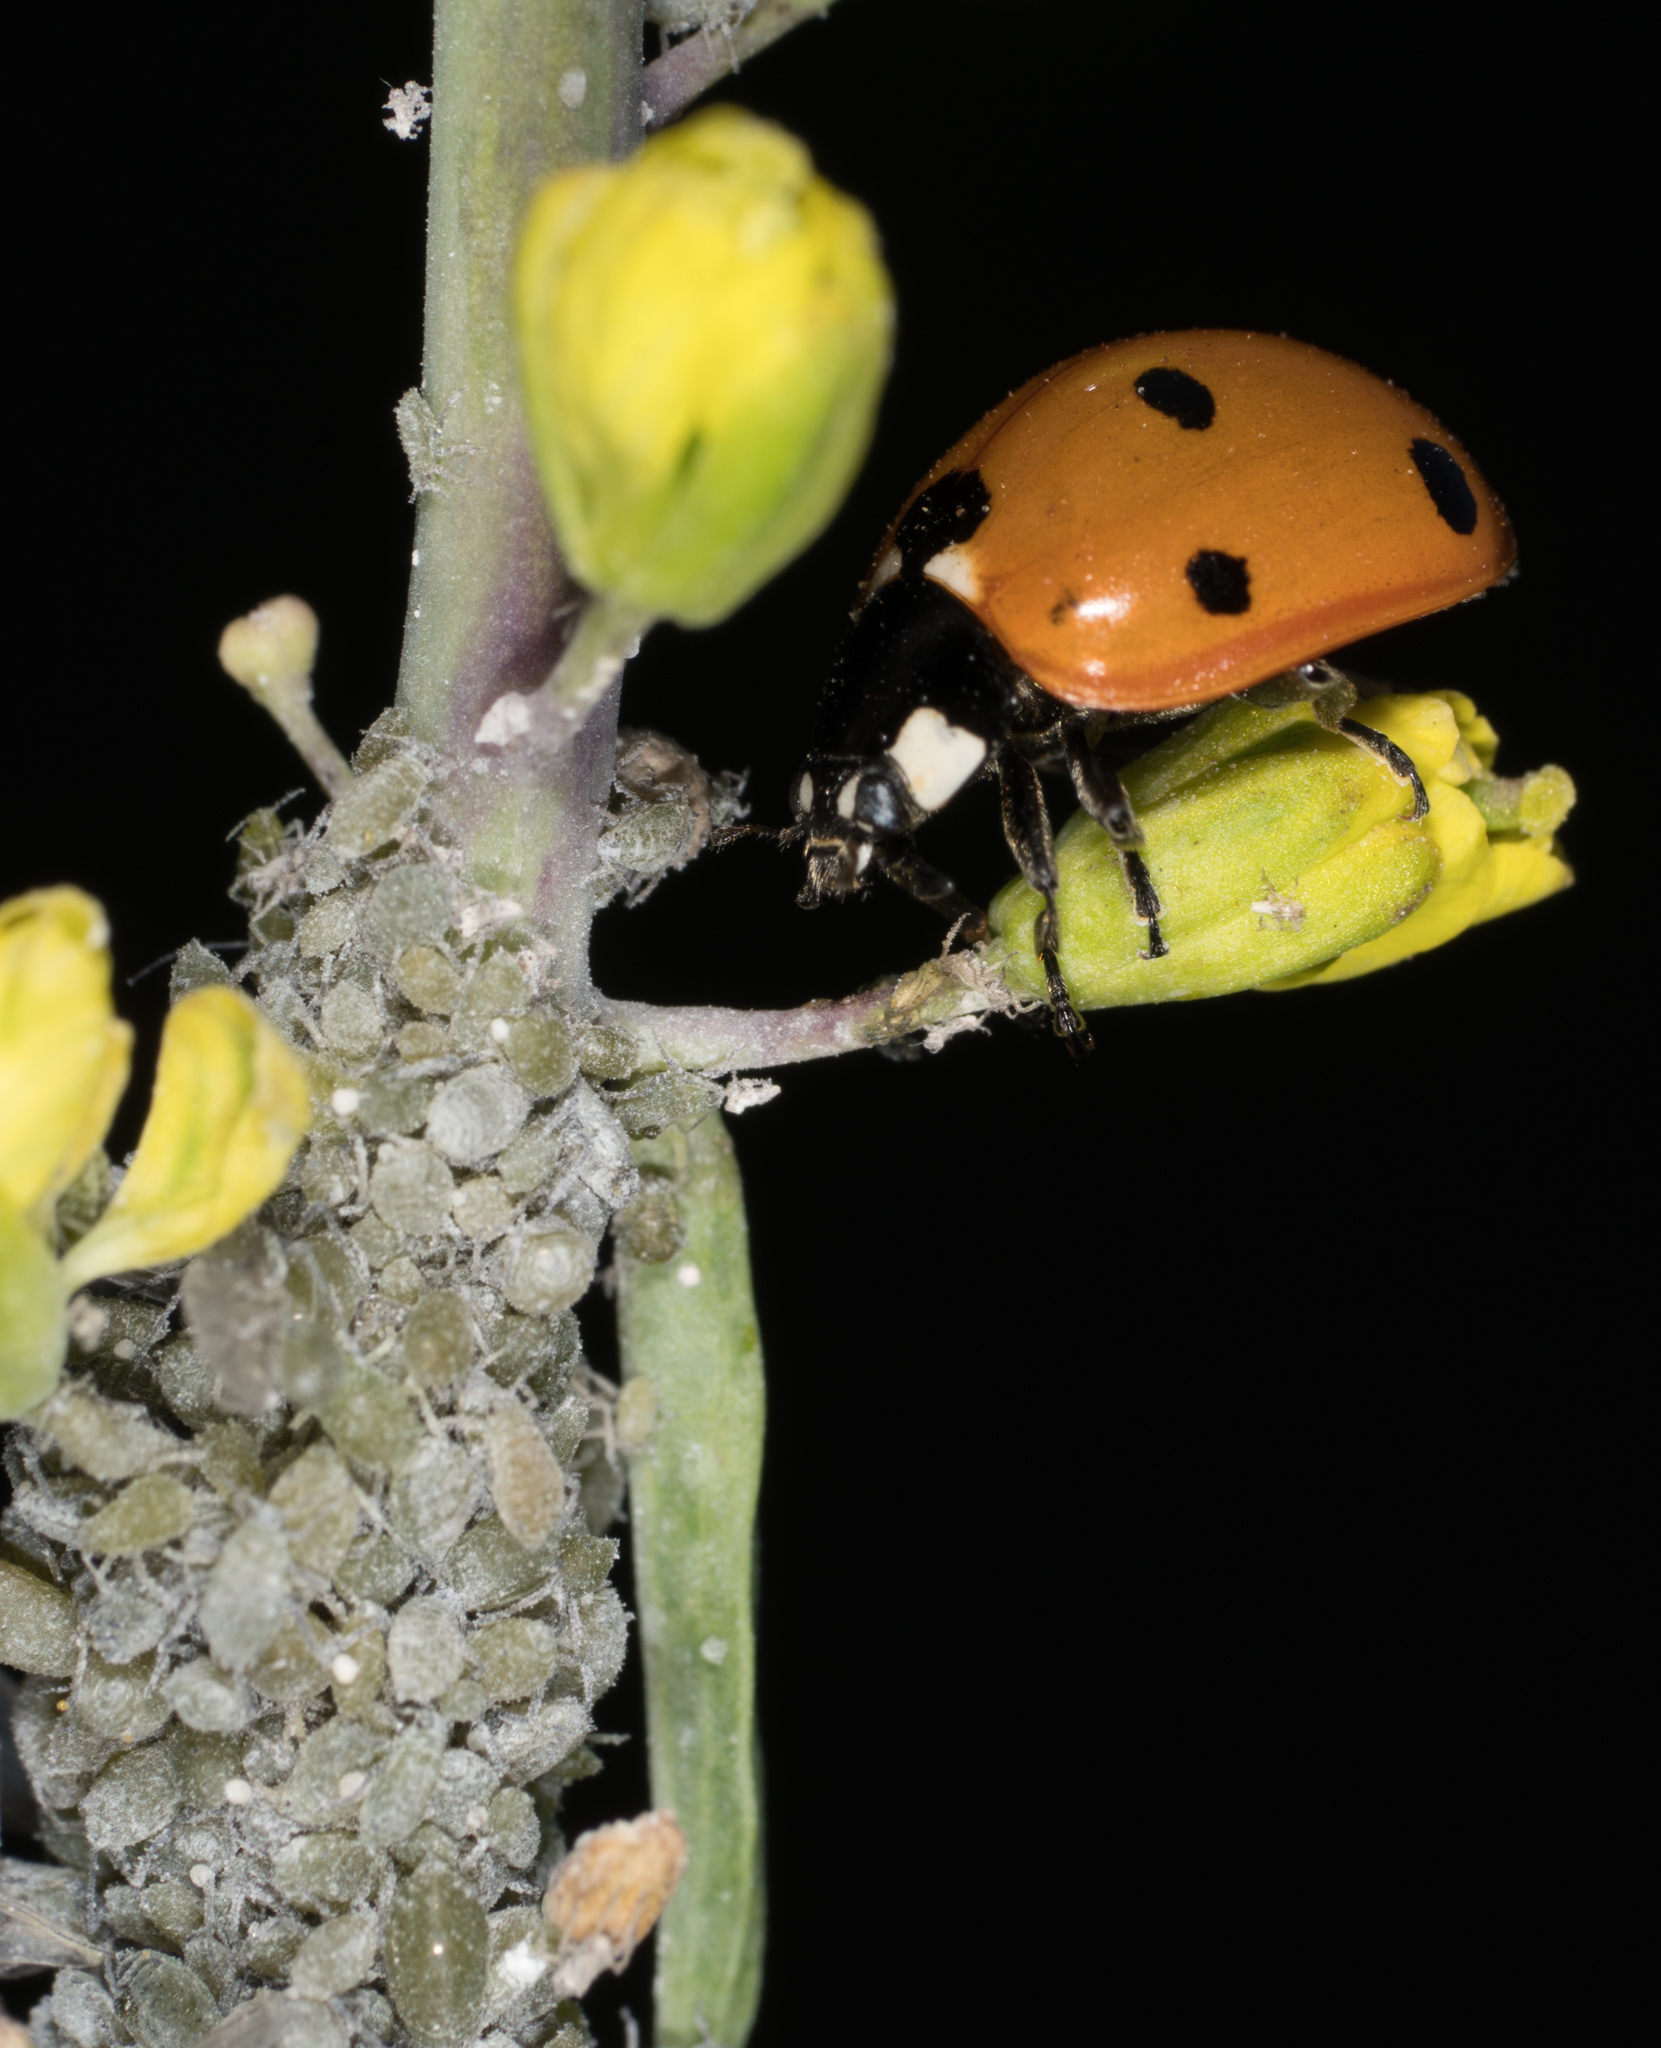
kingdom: Animalia
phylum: Arthropoda
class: Insecta
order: Coleoptera
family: Coccinellidae
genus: Coccinella
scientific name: Coccinella septempunctata
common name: Sevenspotted lady beetle
